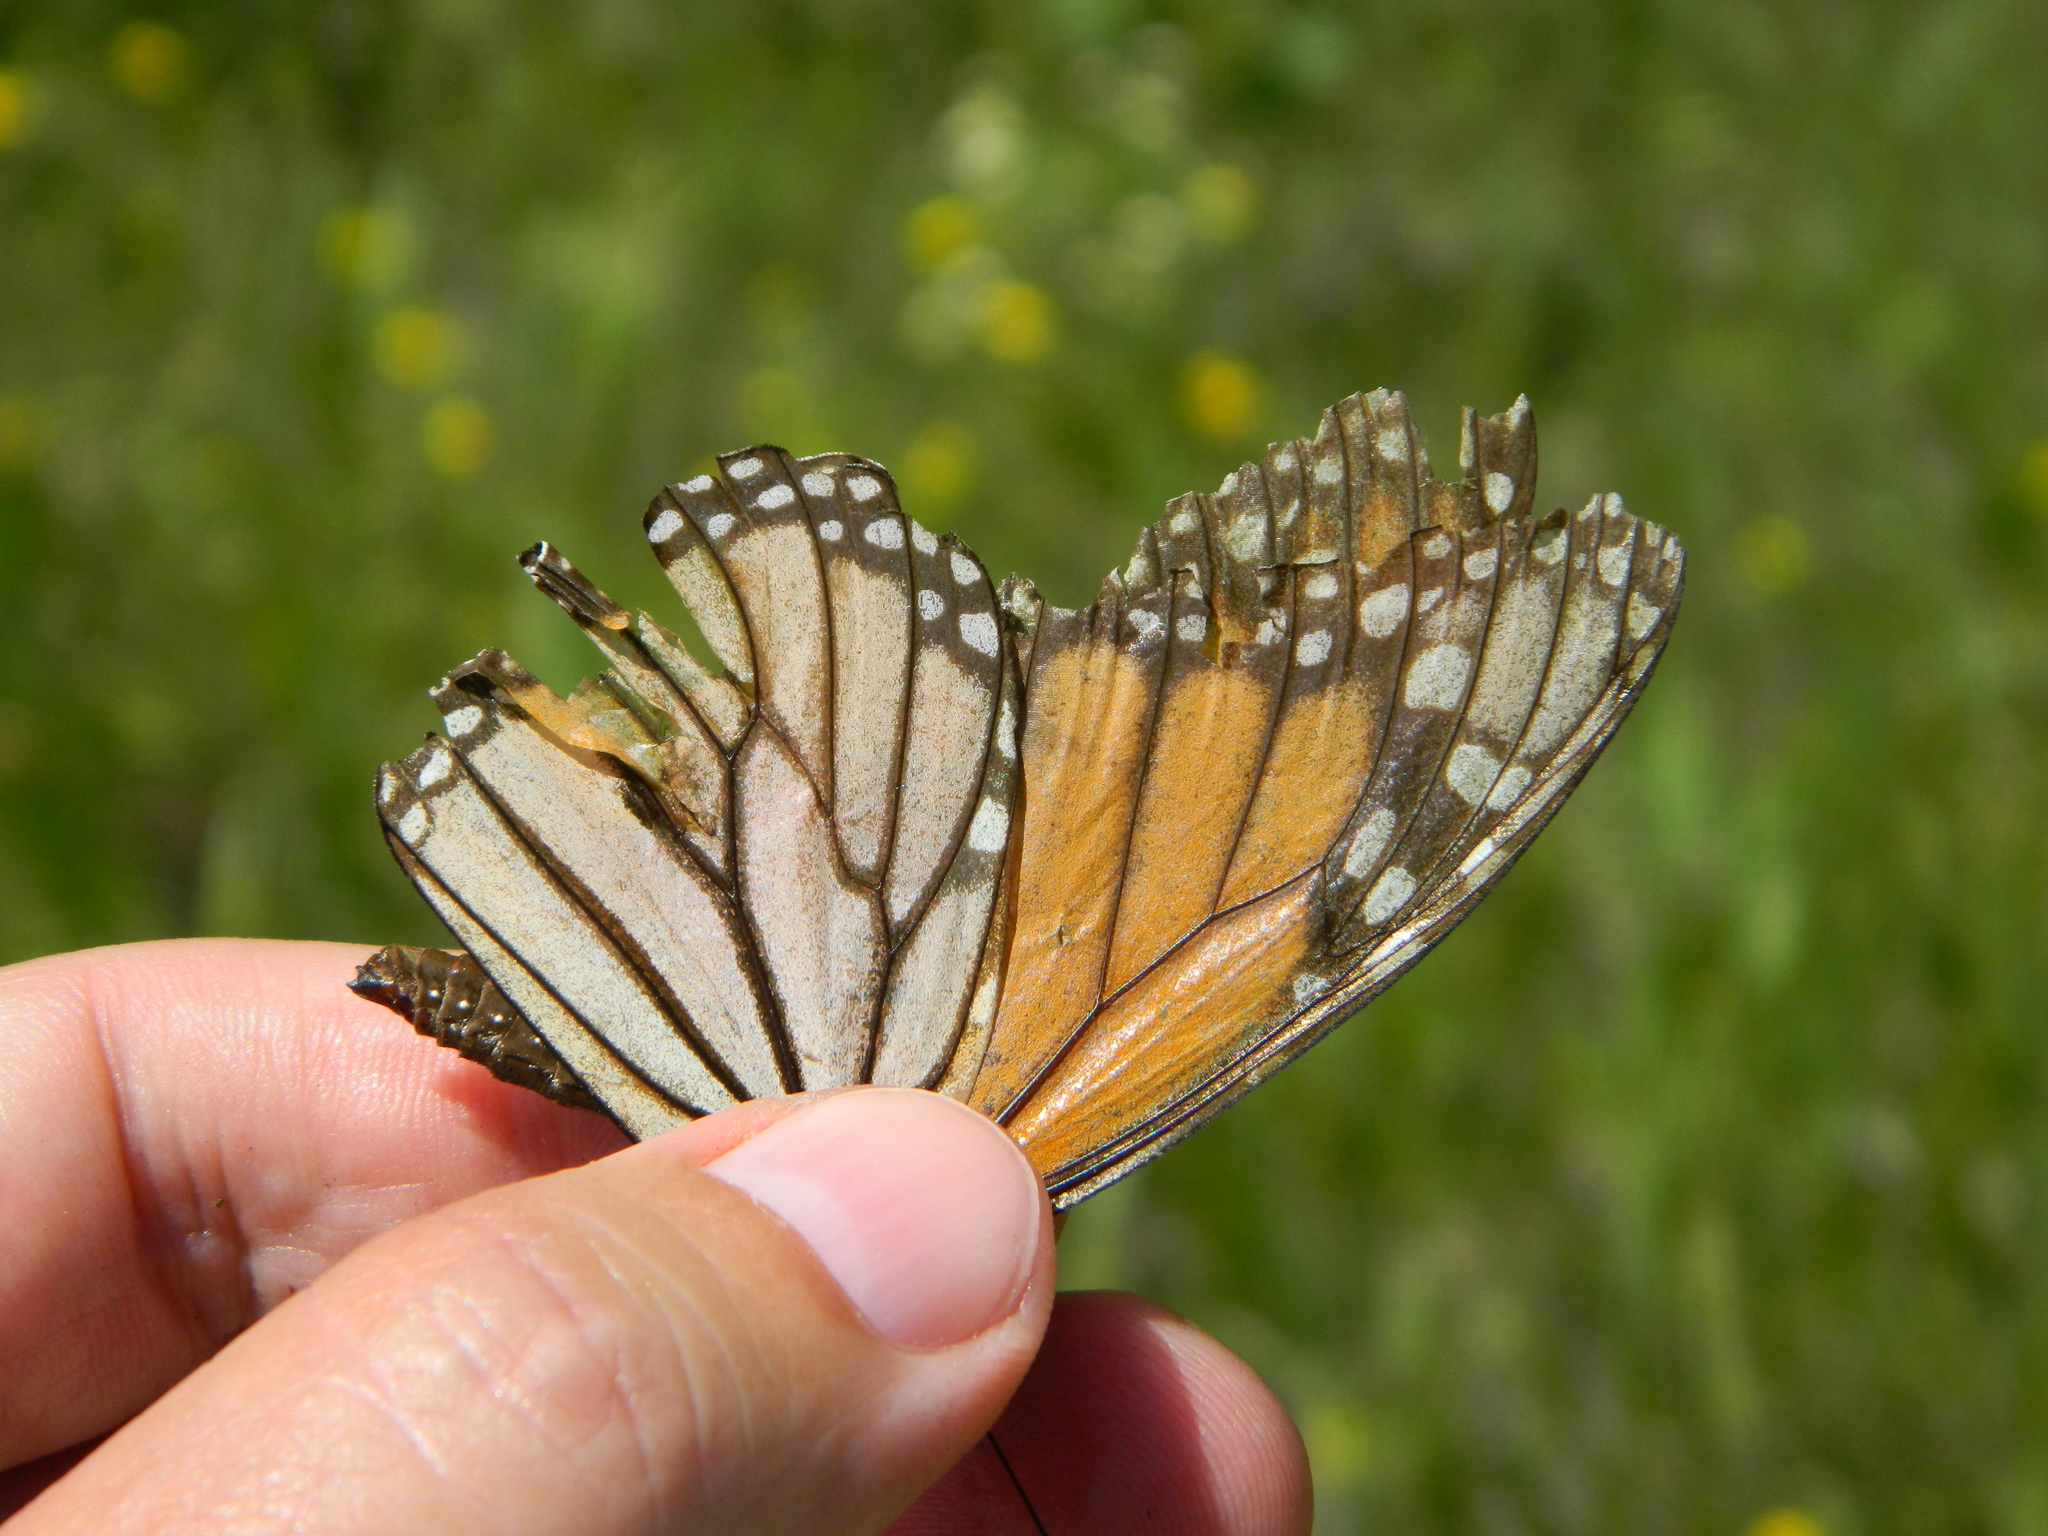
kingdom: Animalia
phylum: Arthropoda
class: Insecta
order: Lepidoptera
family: Nymphalidae
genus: Danaus
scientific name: Danaus plexippus
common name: Monarch
